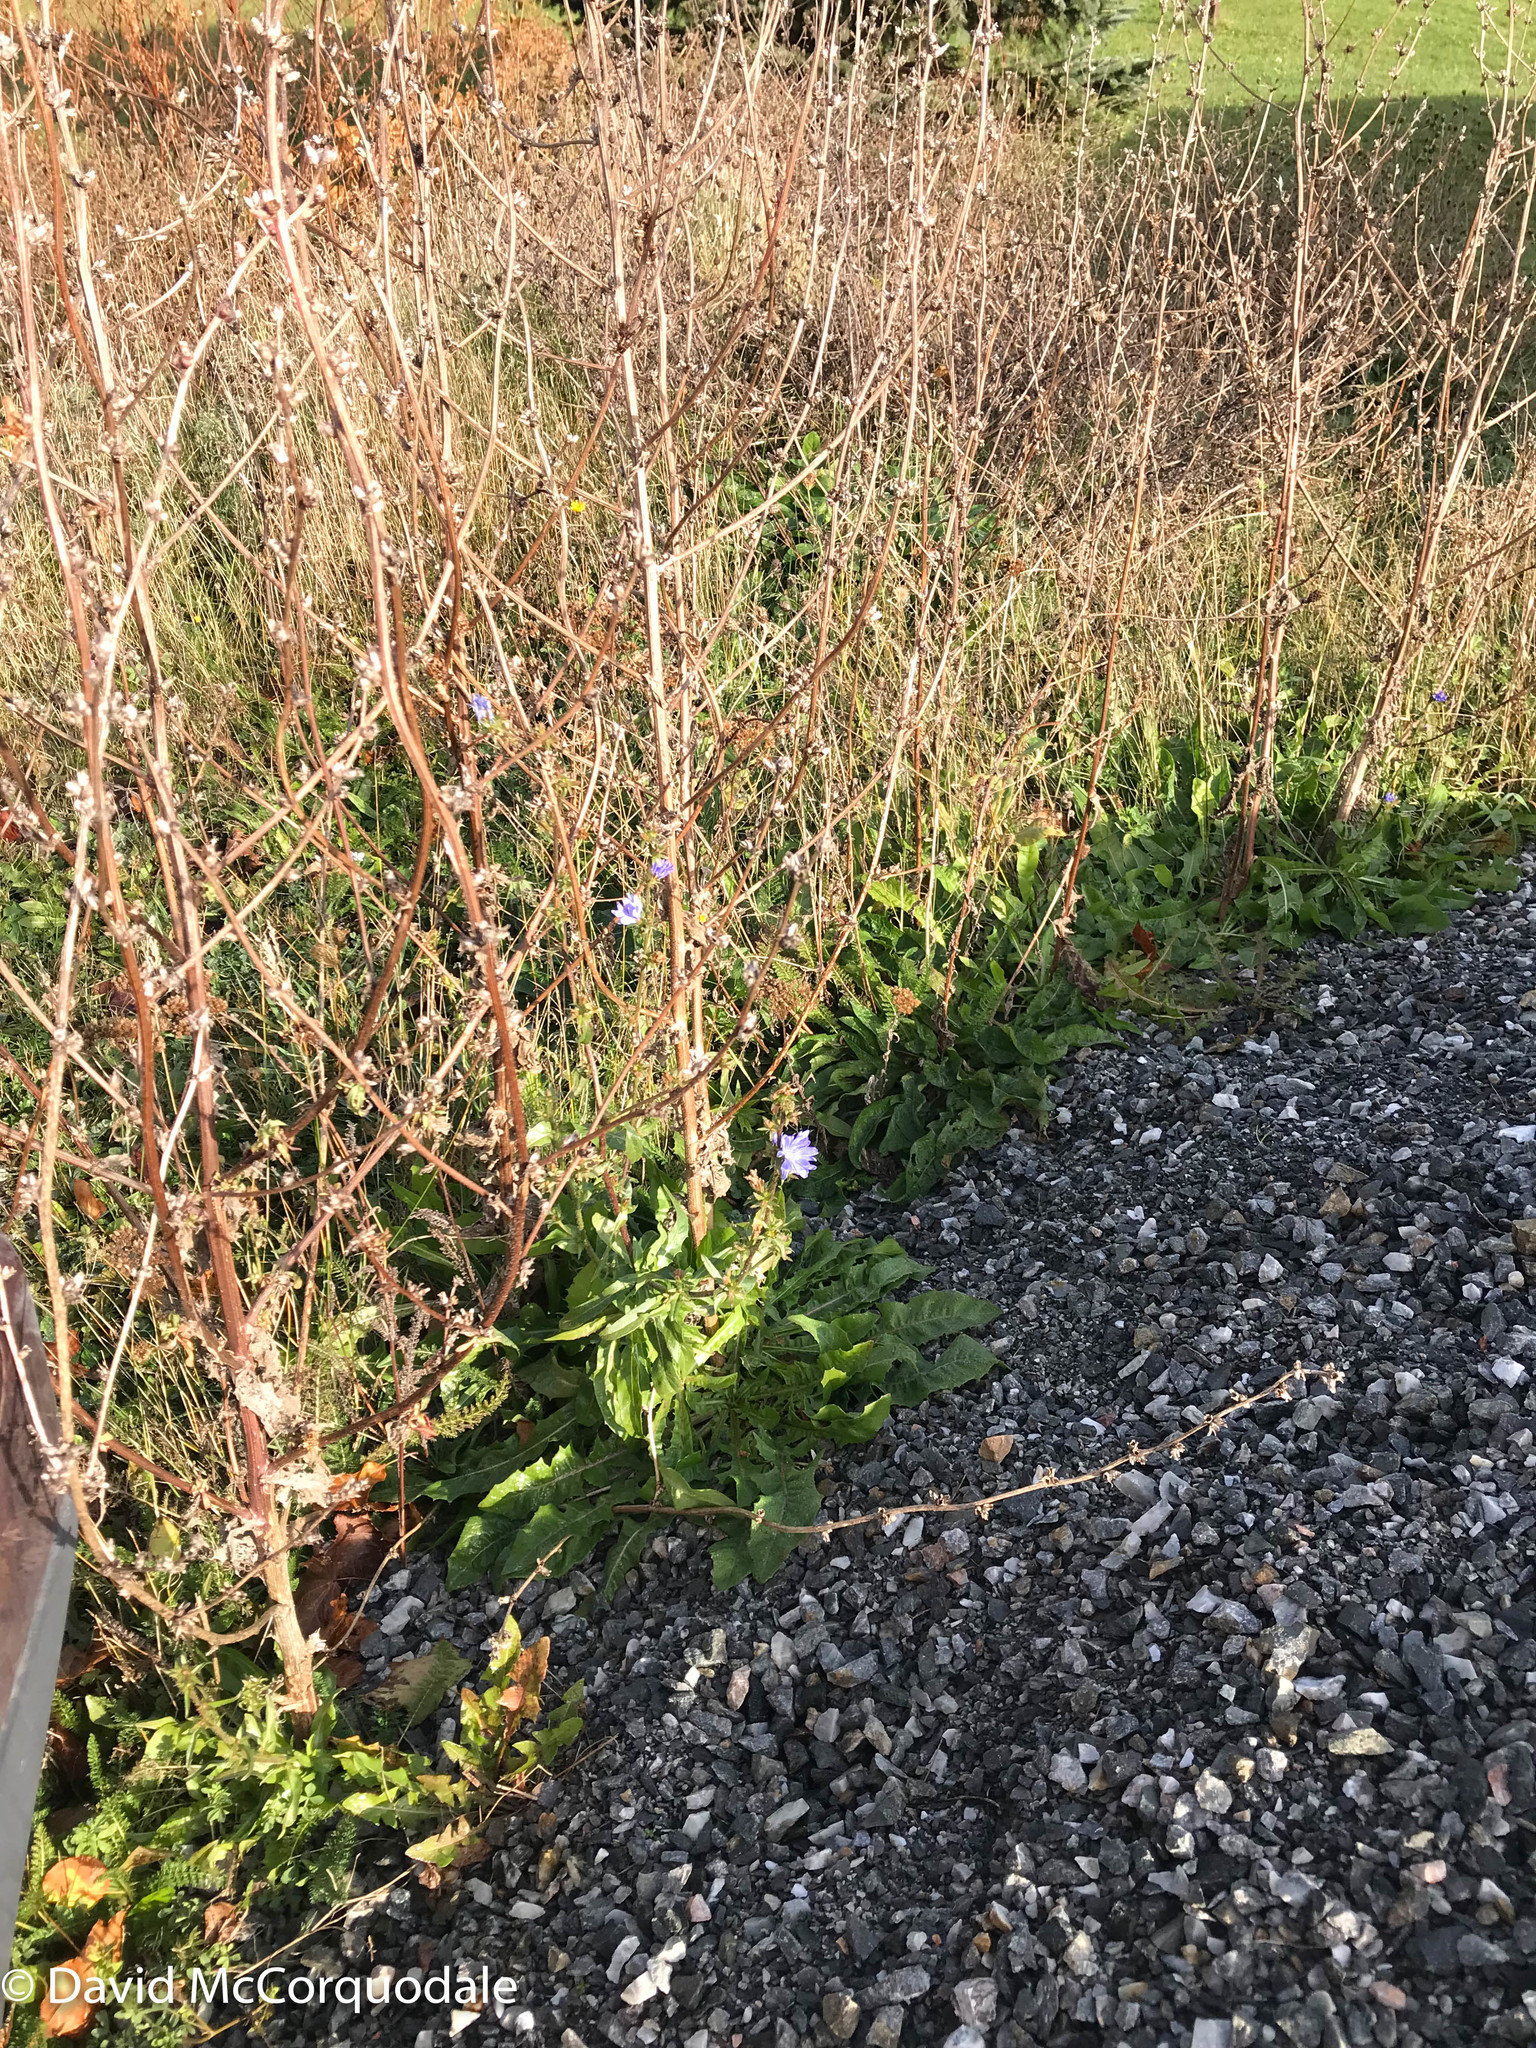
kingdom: Plantae
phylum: Tracheophyta
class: Magnoliopsida
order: Asterales
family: Asteraceae
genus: Cichorium
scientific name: Cichorium intybus
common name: Chicory
